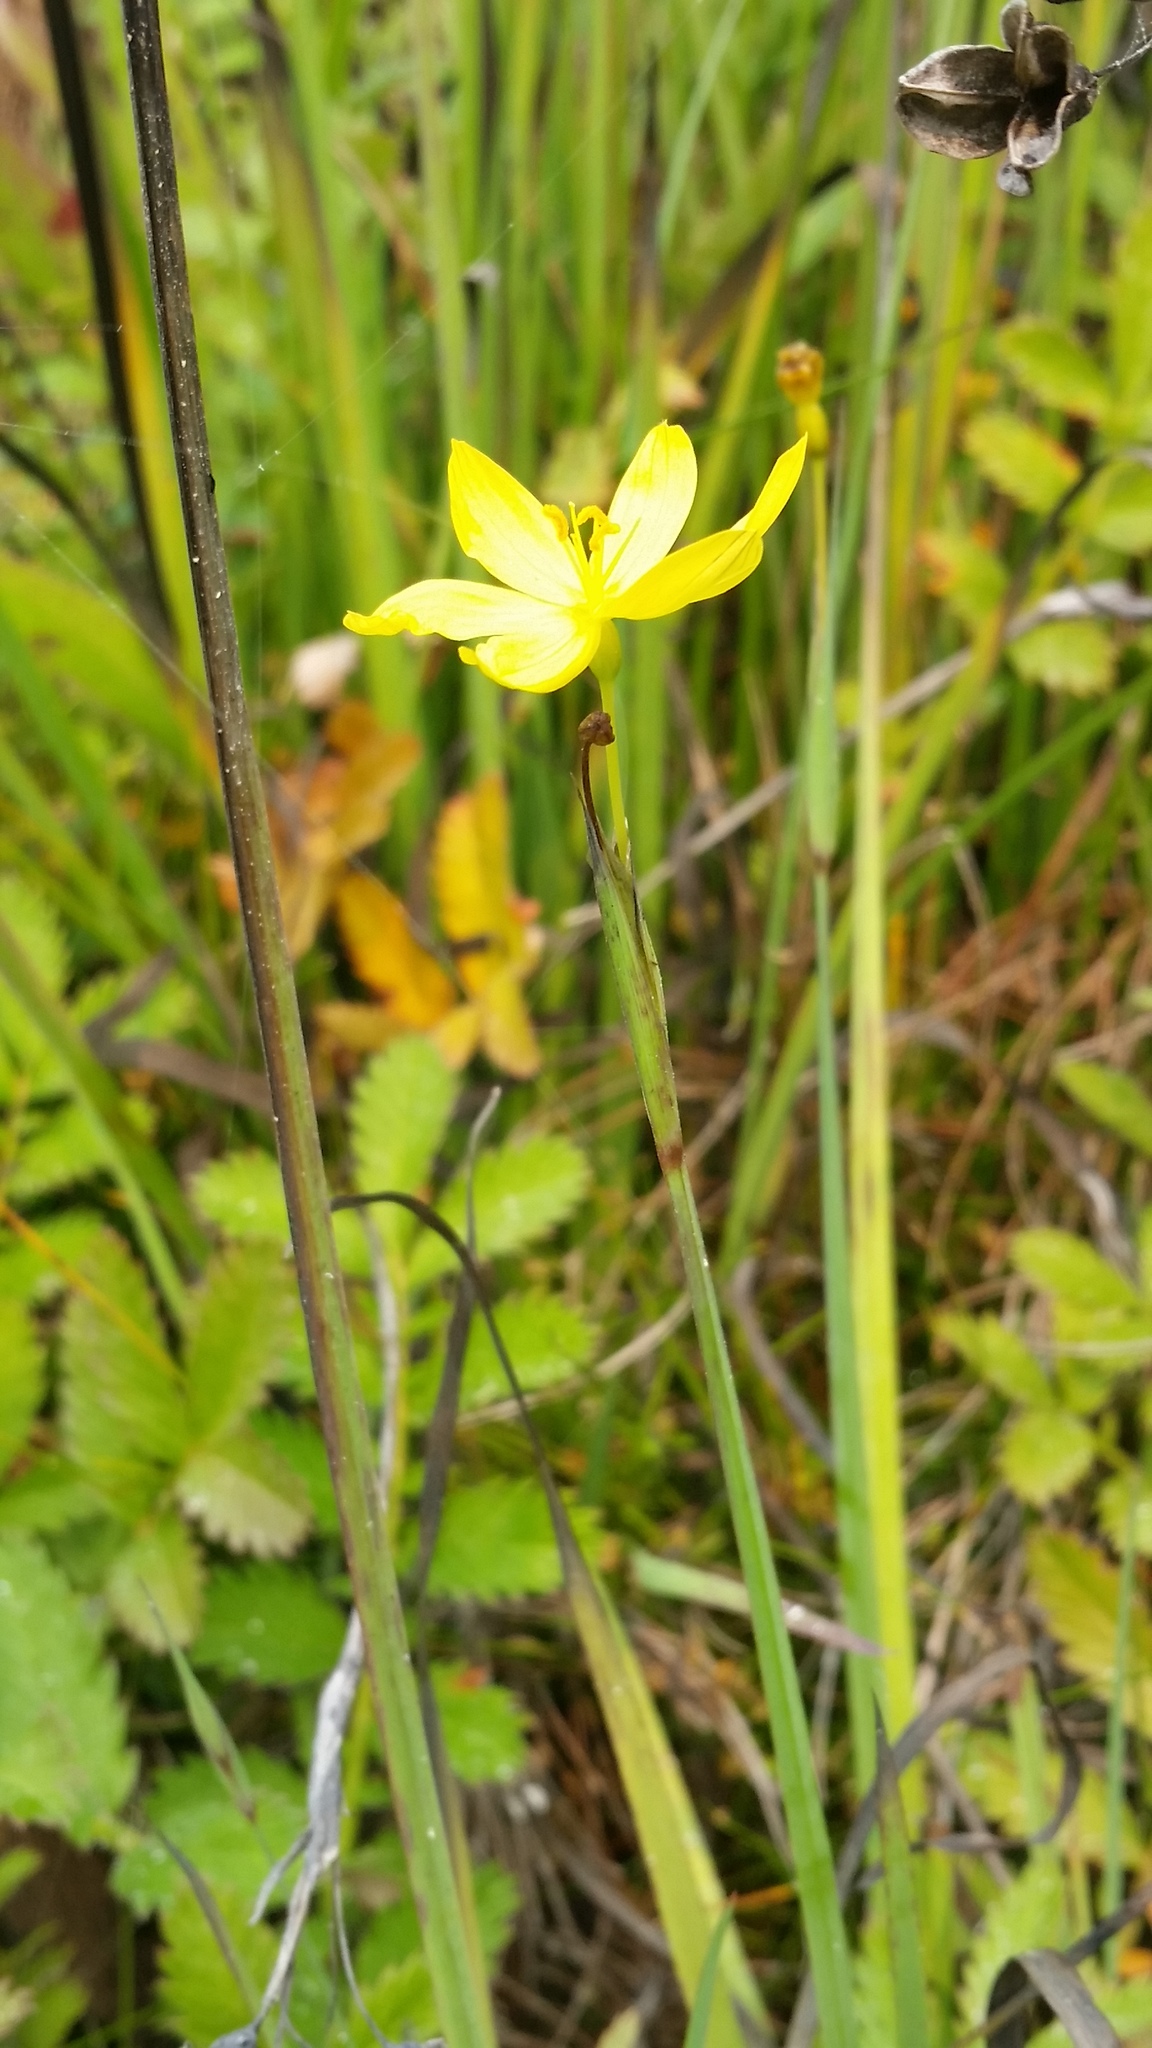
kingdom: Plantae
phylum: Tracheophyta
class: Liliopsida
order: Asparagales
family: Iridaceae
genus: Sisyrinchium
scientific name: Sisyrinchium californicum
